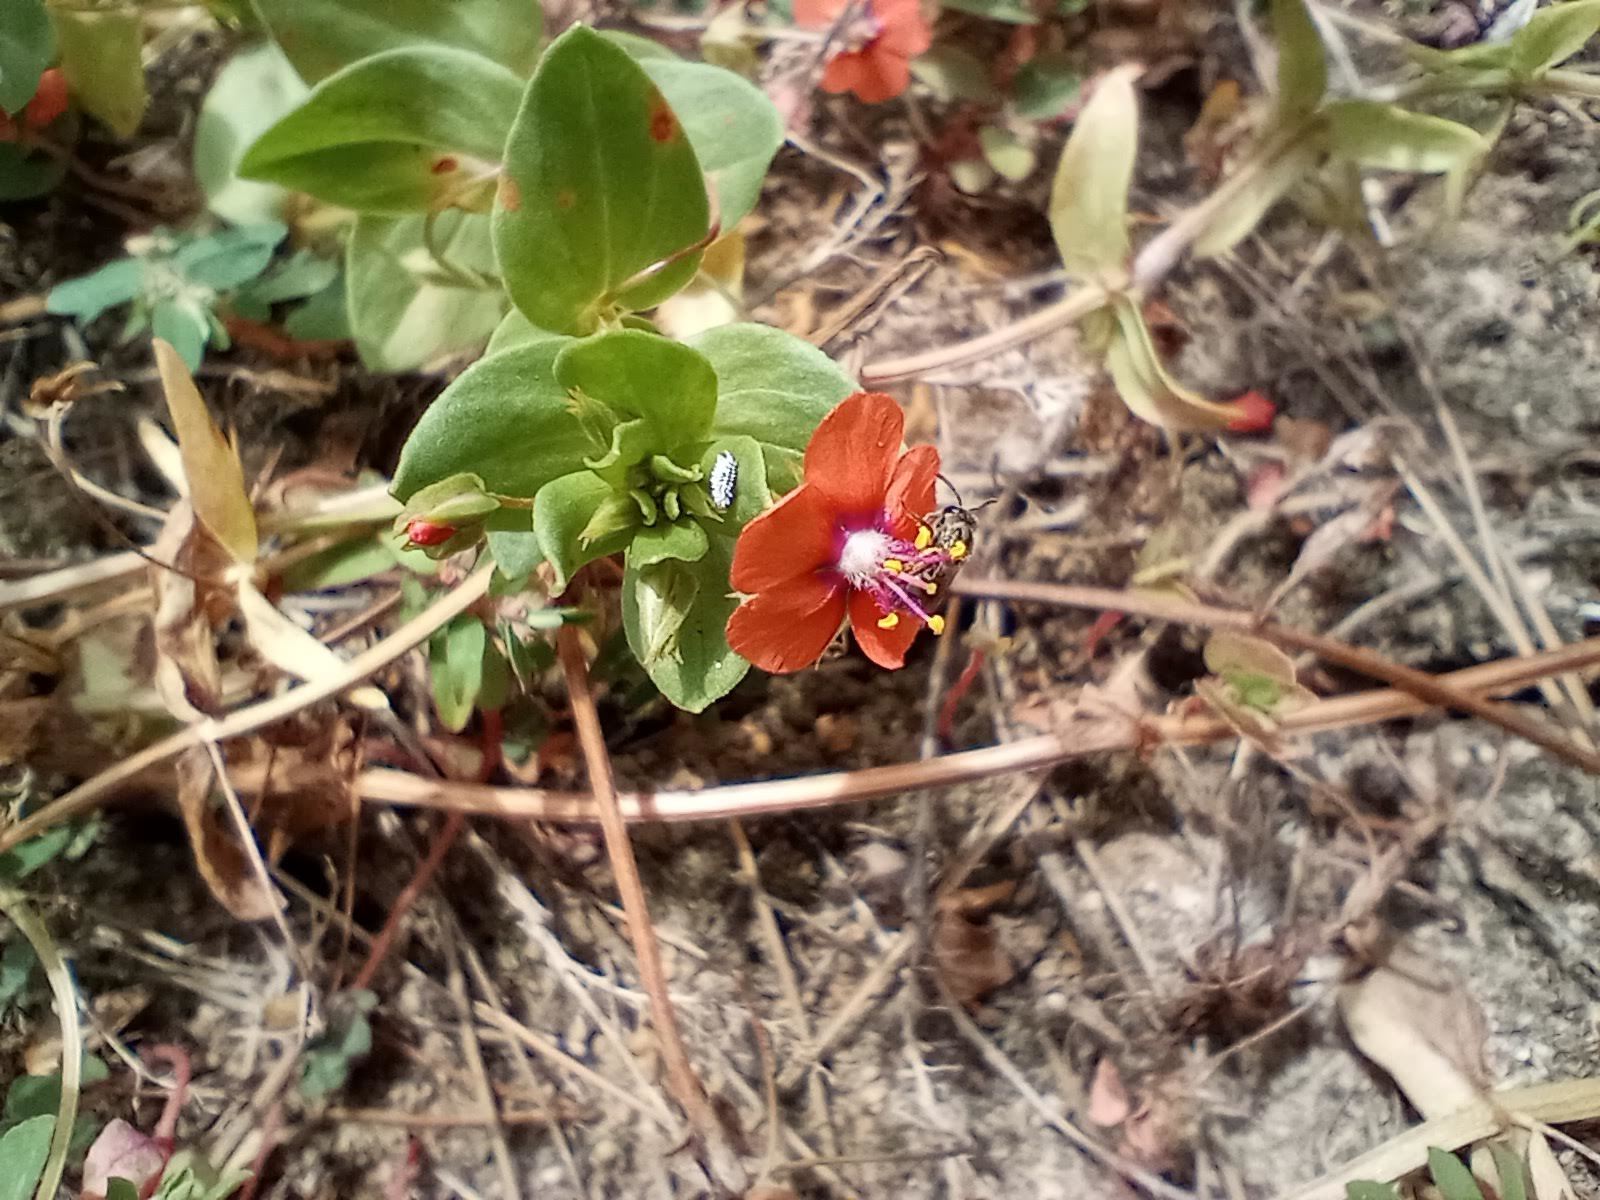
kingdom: Animalia
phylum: Arthropoda
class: Insecta
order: Hymenoptera
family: Halictidae
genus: Dialictus
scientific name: Dialictus
